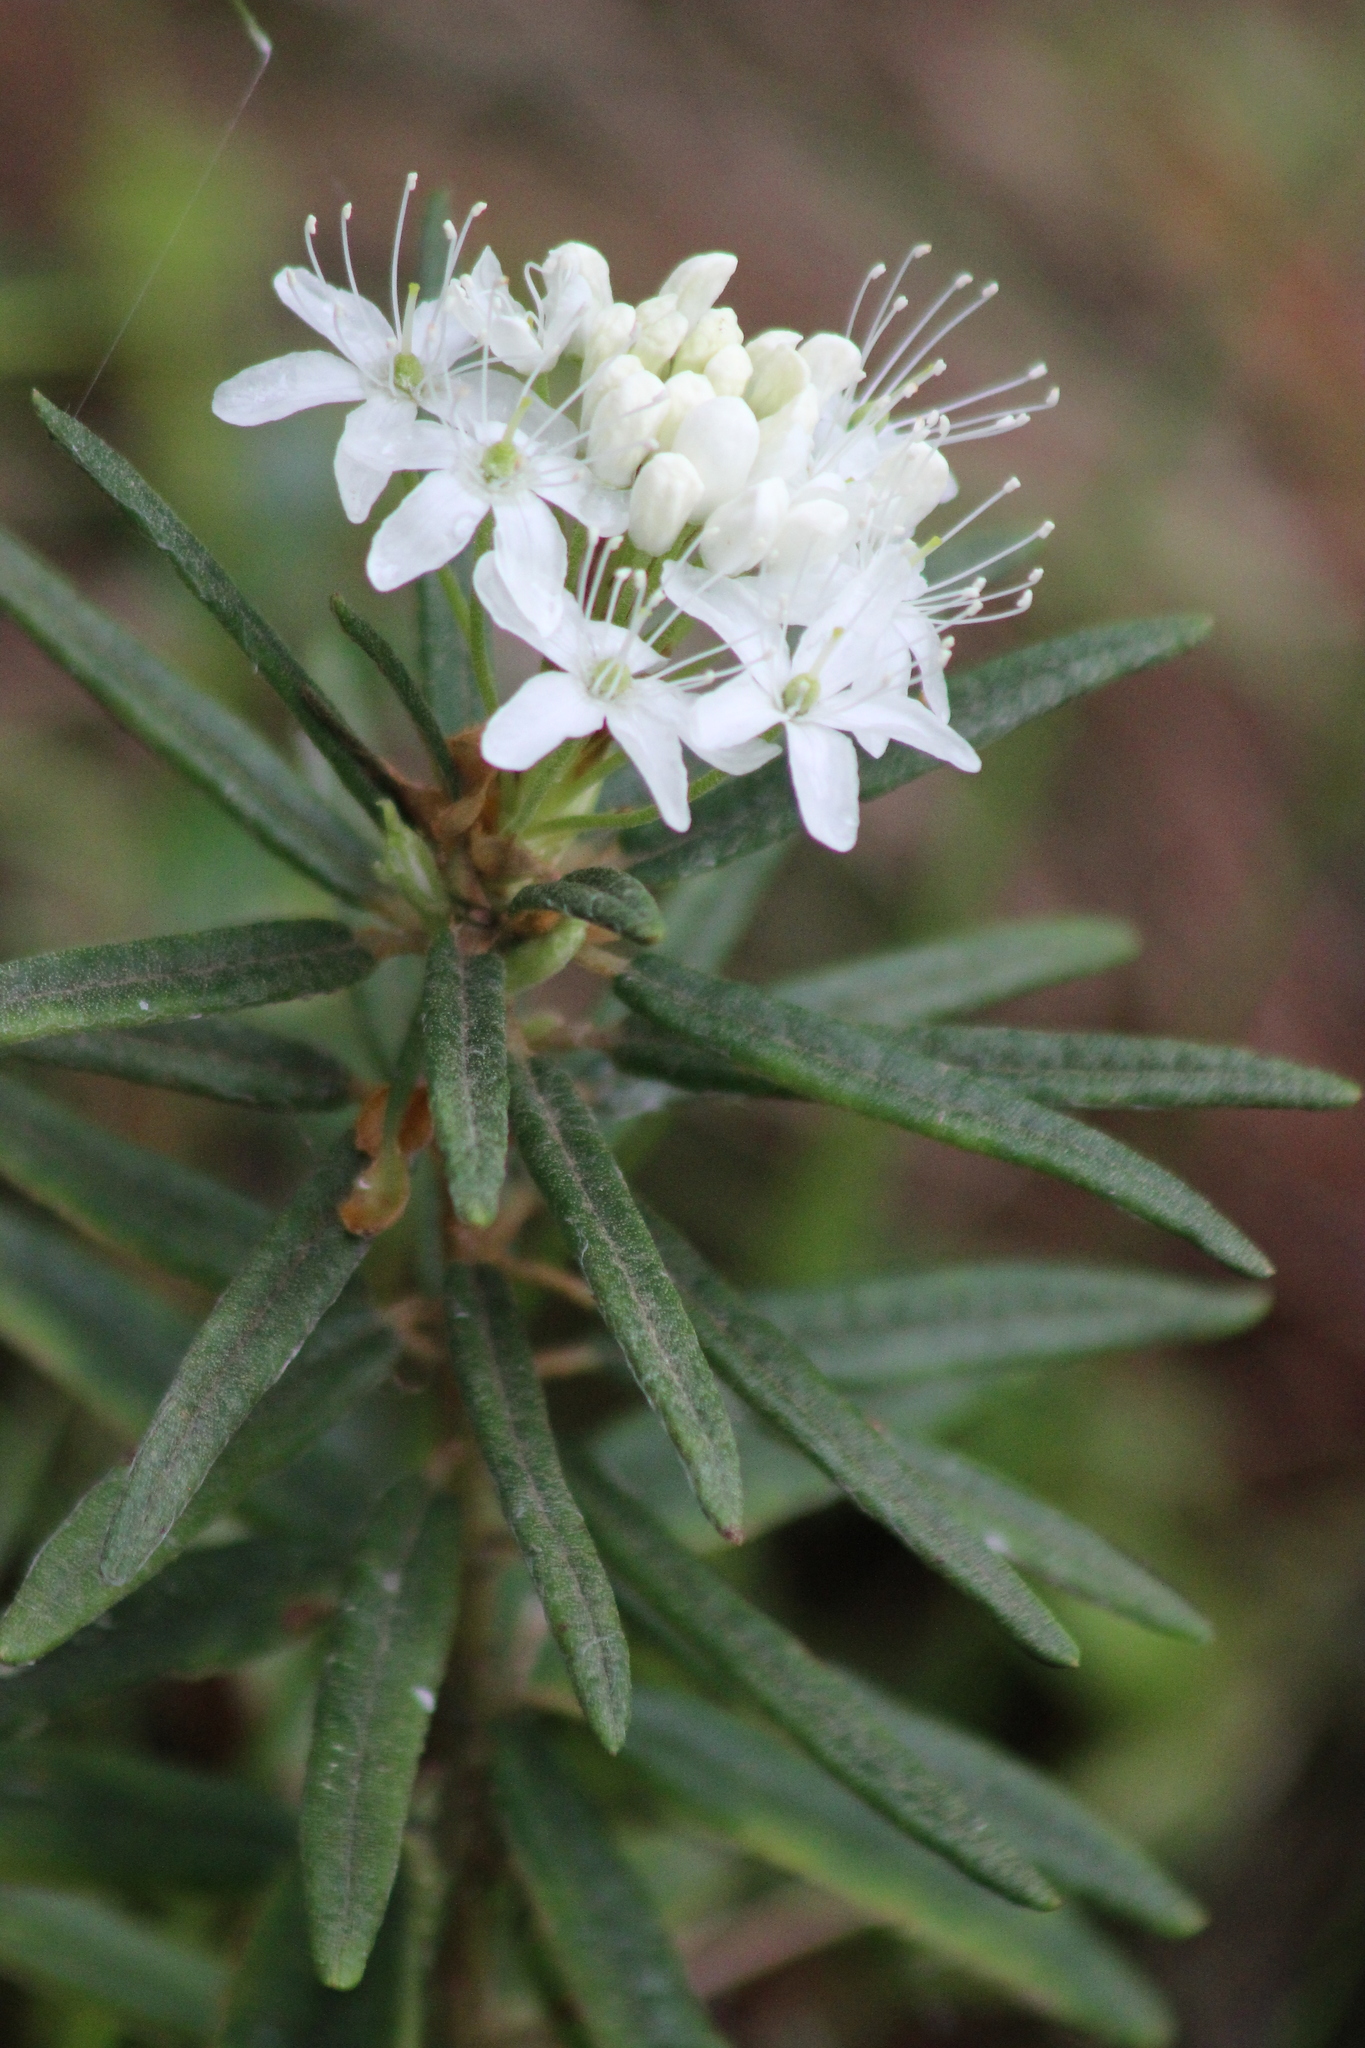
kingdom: Plantae
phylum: Tracheophyta
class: Magnoliopsida
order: Ericales
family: Ericaceae
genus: Rhododendron
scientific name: Rhododendron tomentosum
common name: Marsh labrador tea
